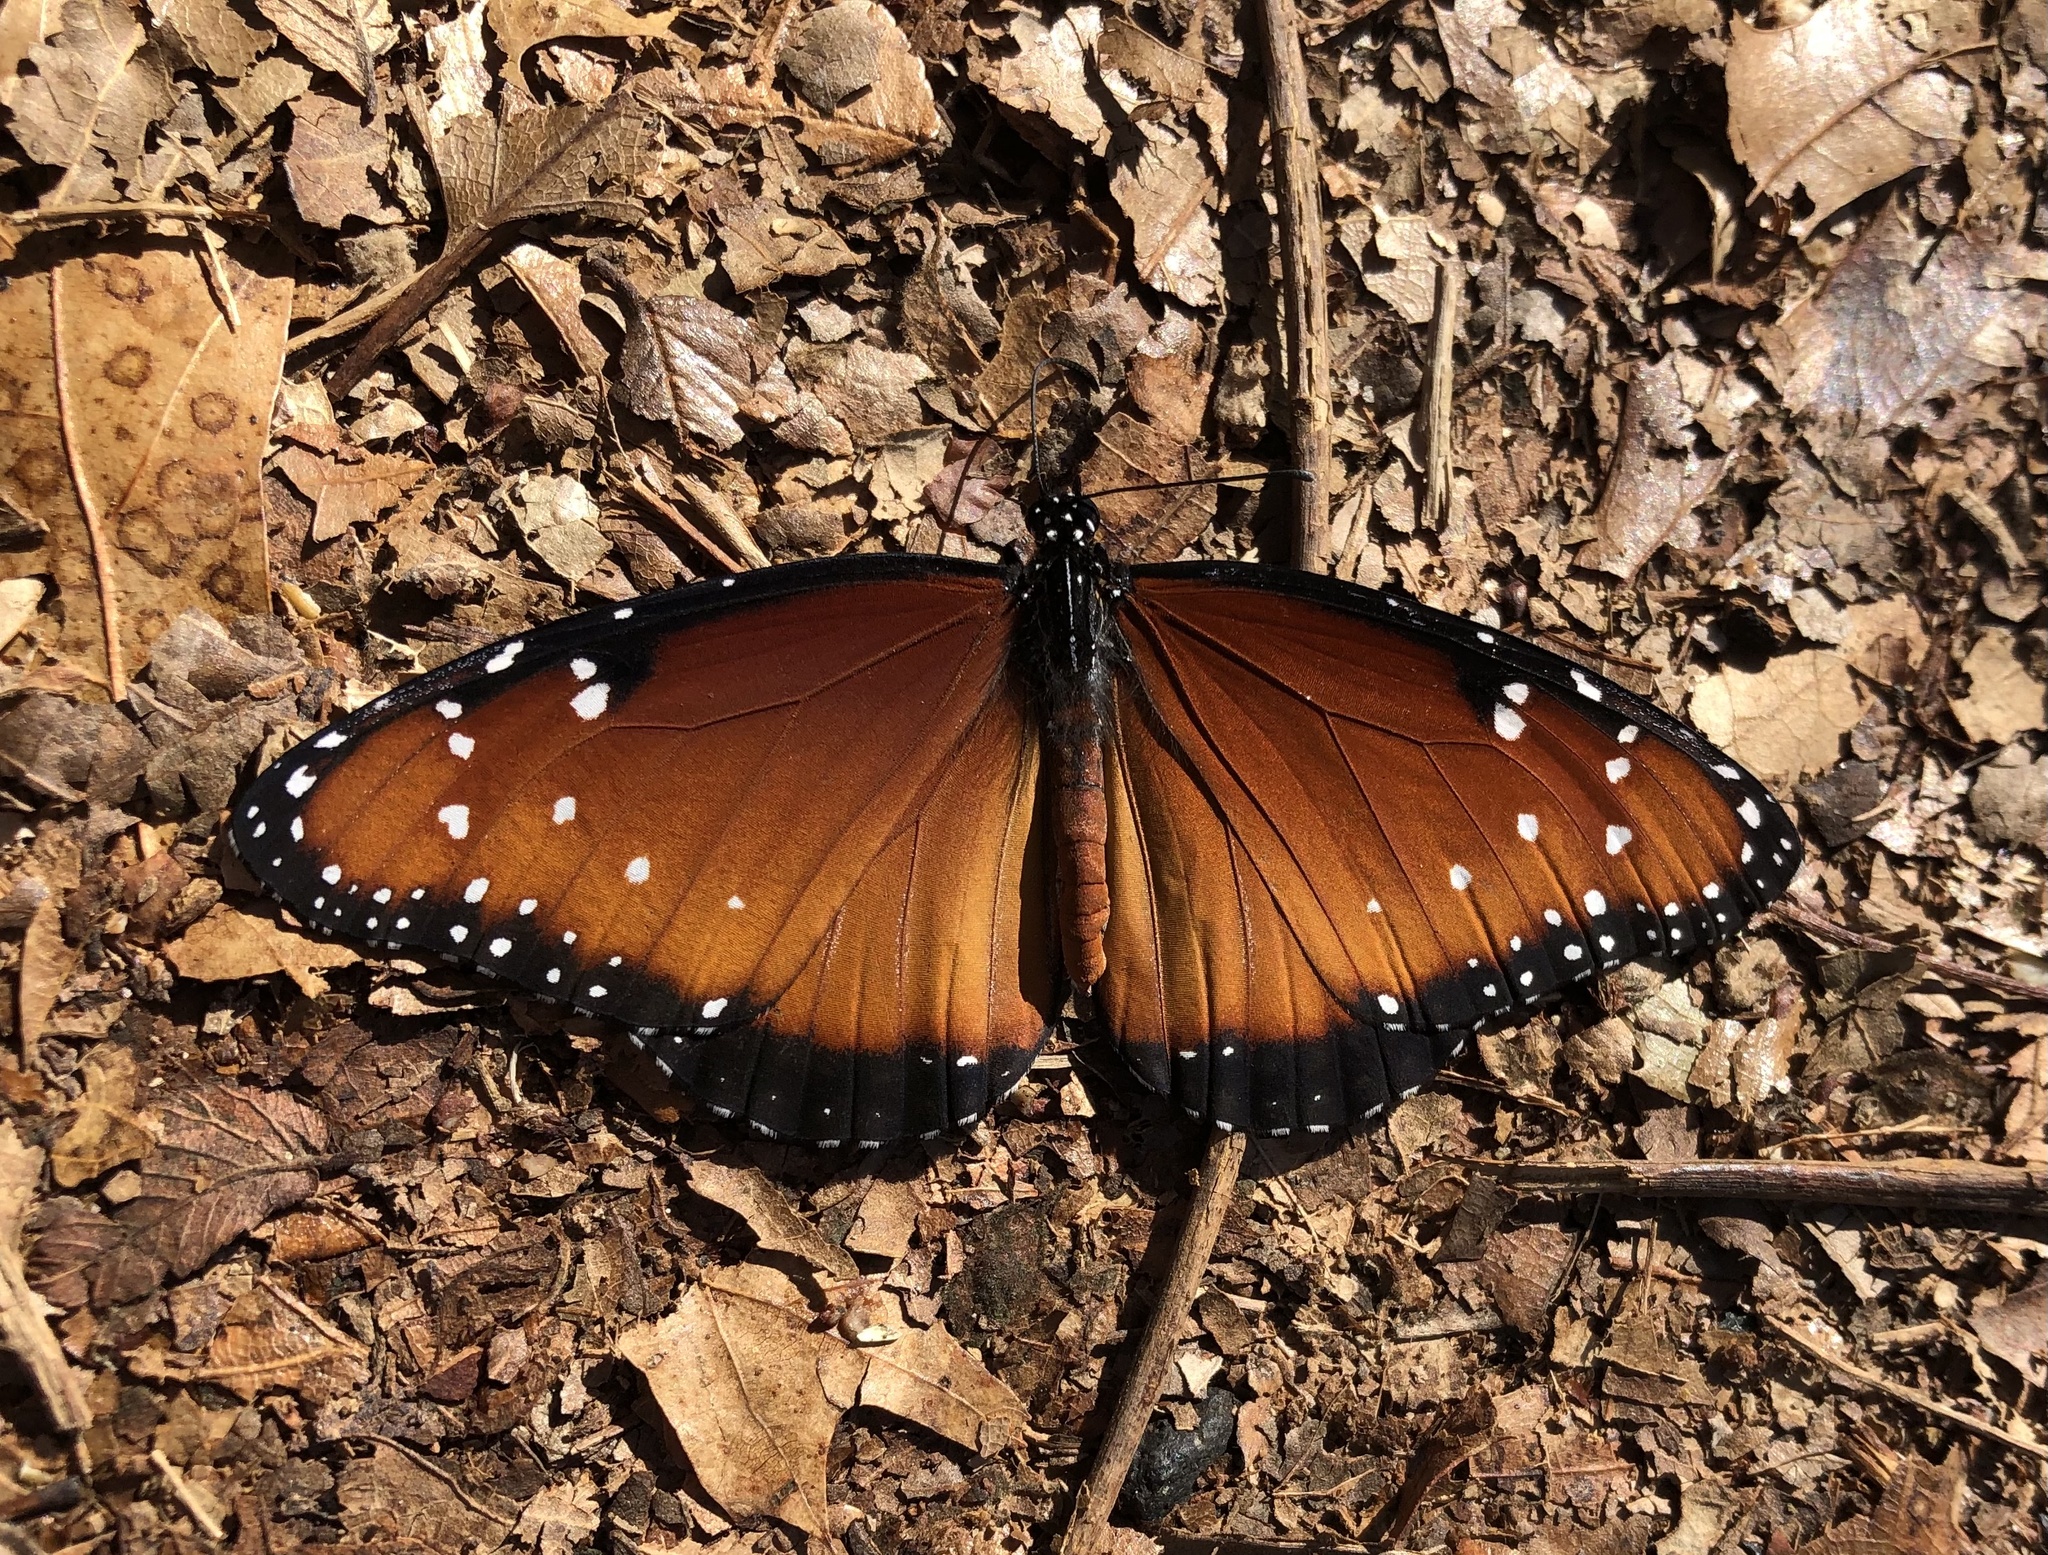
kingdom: Animalia
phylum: Arthropoda
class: Insecta
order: Lepidoptera
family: Nymphalidae
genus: Danaus
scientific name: Danaus gilippus
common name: Queen
